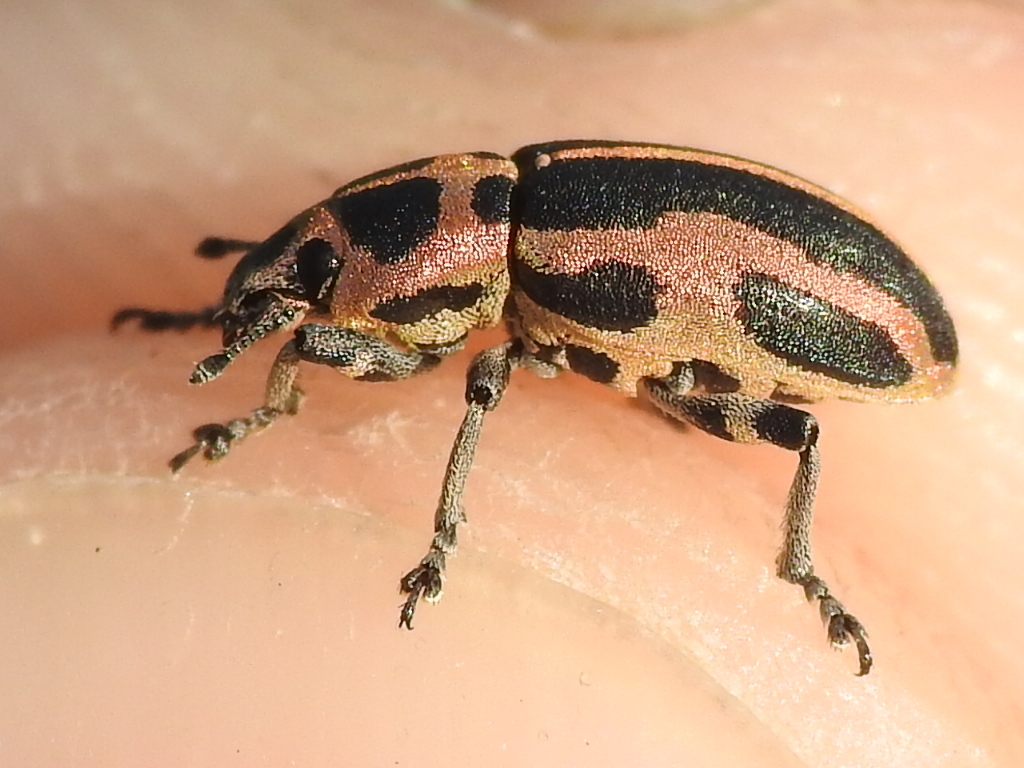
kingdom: Animalia
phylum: Arthropoda
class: Insecta
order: Coleoptera
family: Curculionidae
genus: Eudiagogus
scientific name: Eudiagogus pulcher
